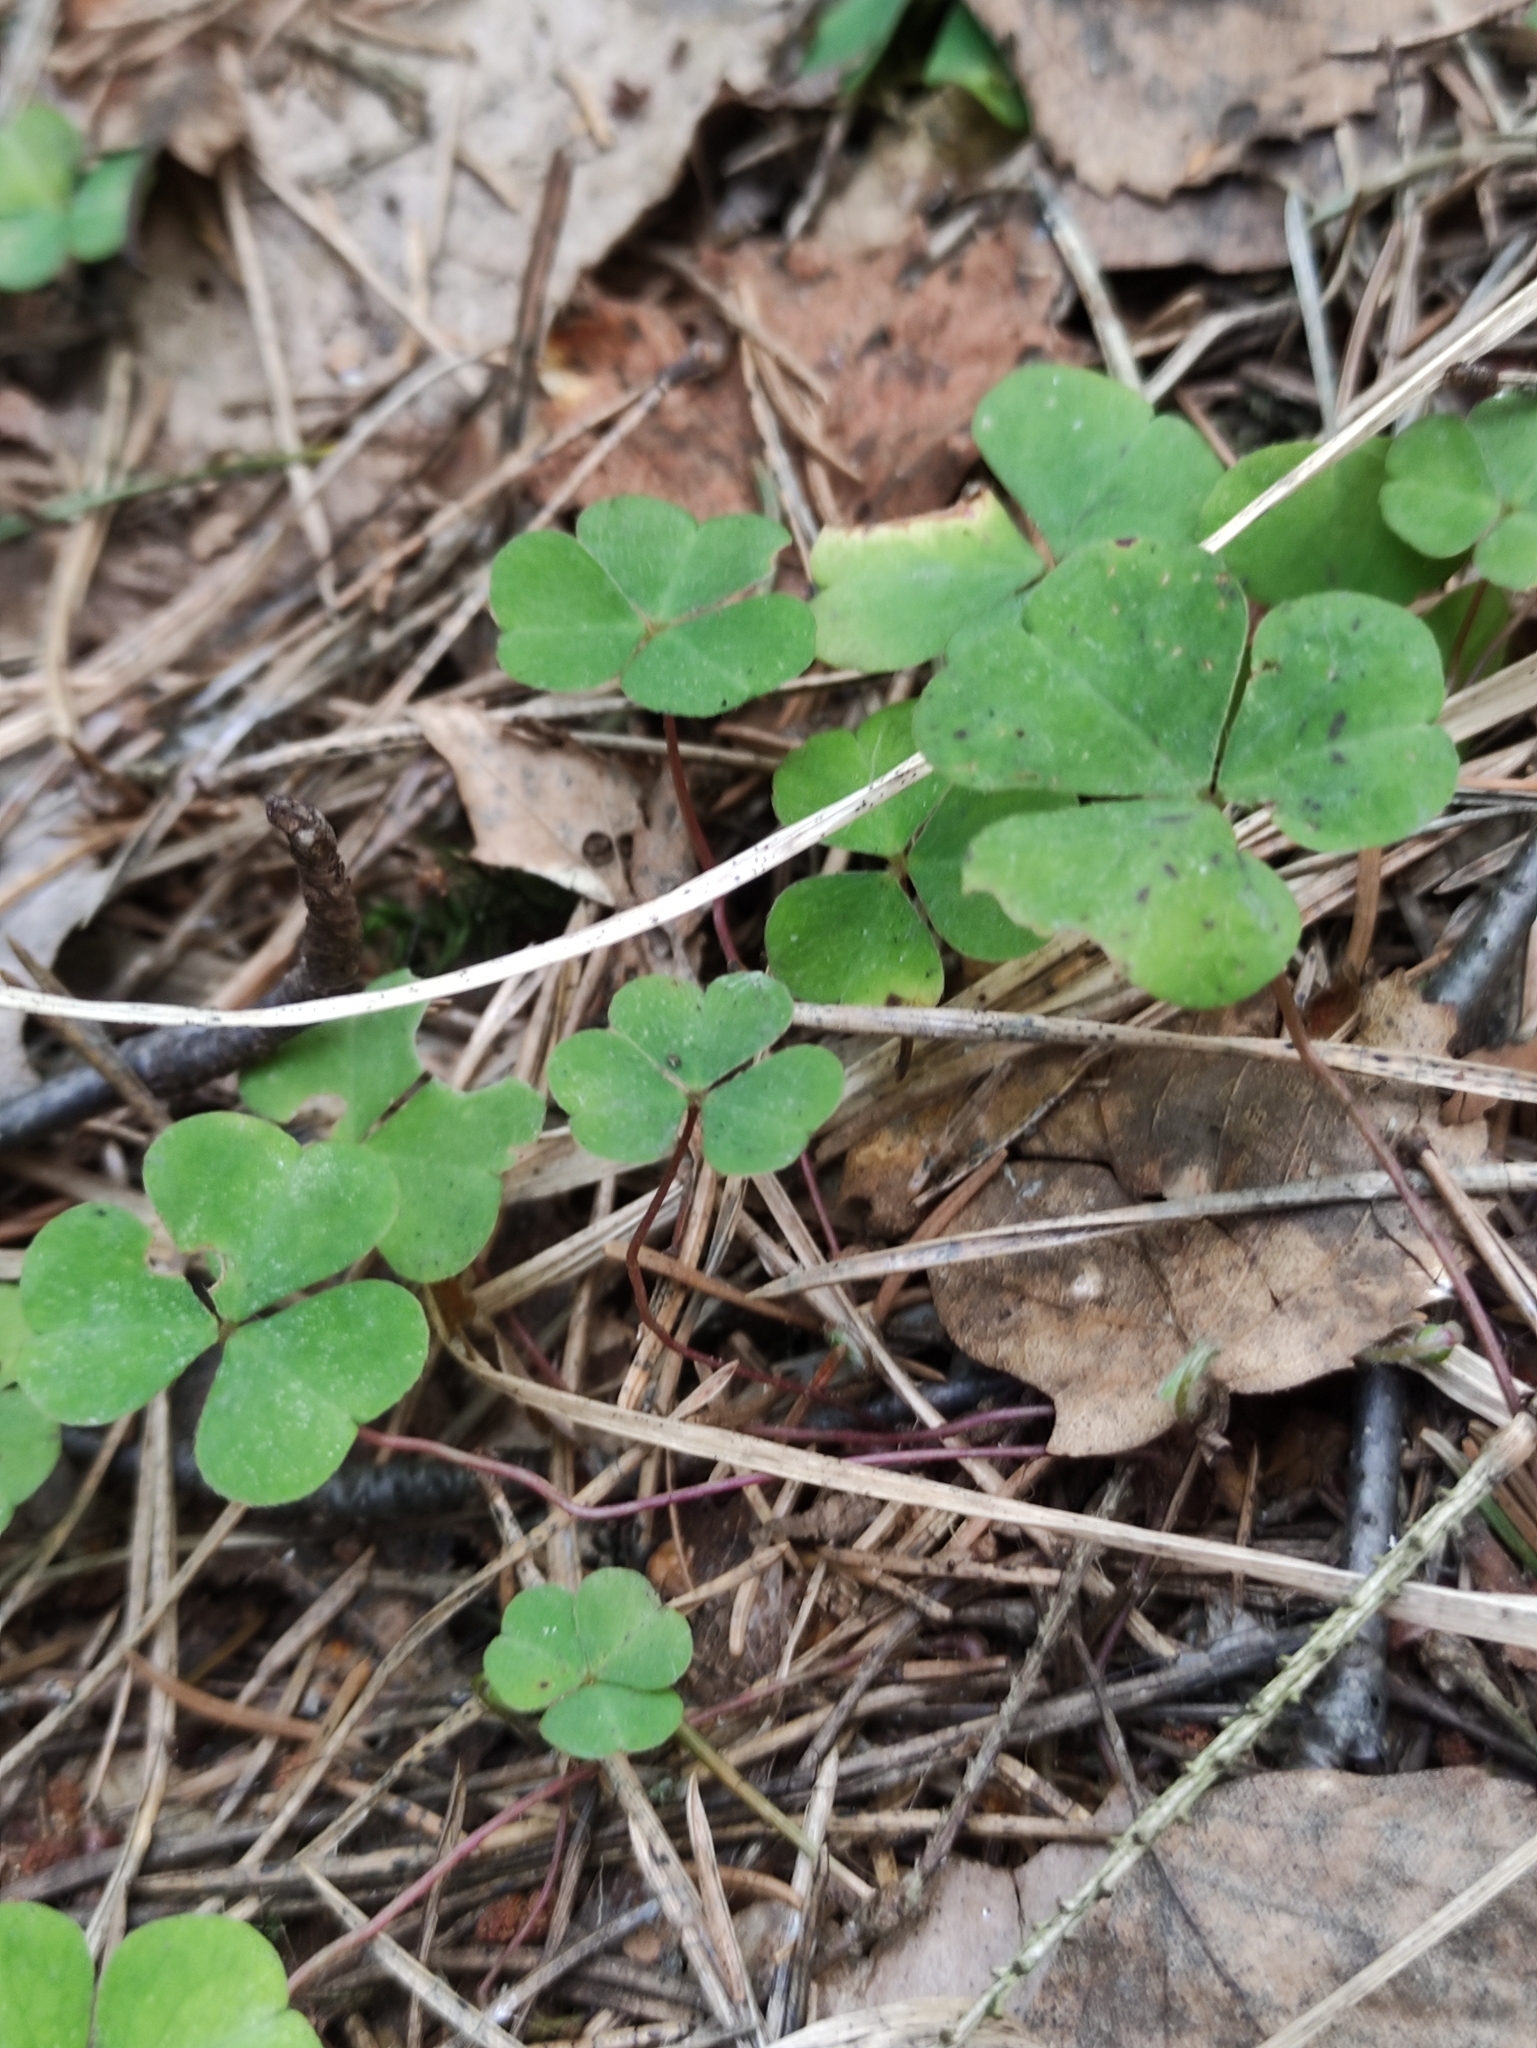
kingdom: Plantae
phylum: Tracheophyta
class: Magnoliopsida
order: Oxalidales
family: Oxalidaceae
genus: Oxalis
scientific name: Oxalis acetosella
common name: Wood-sorrel
